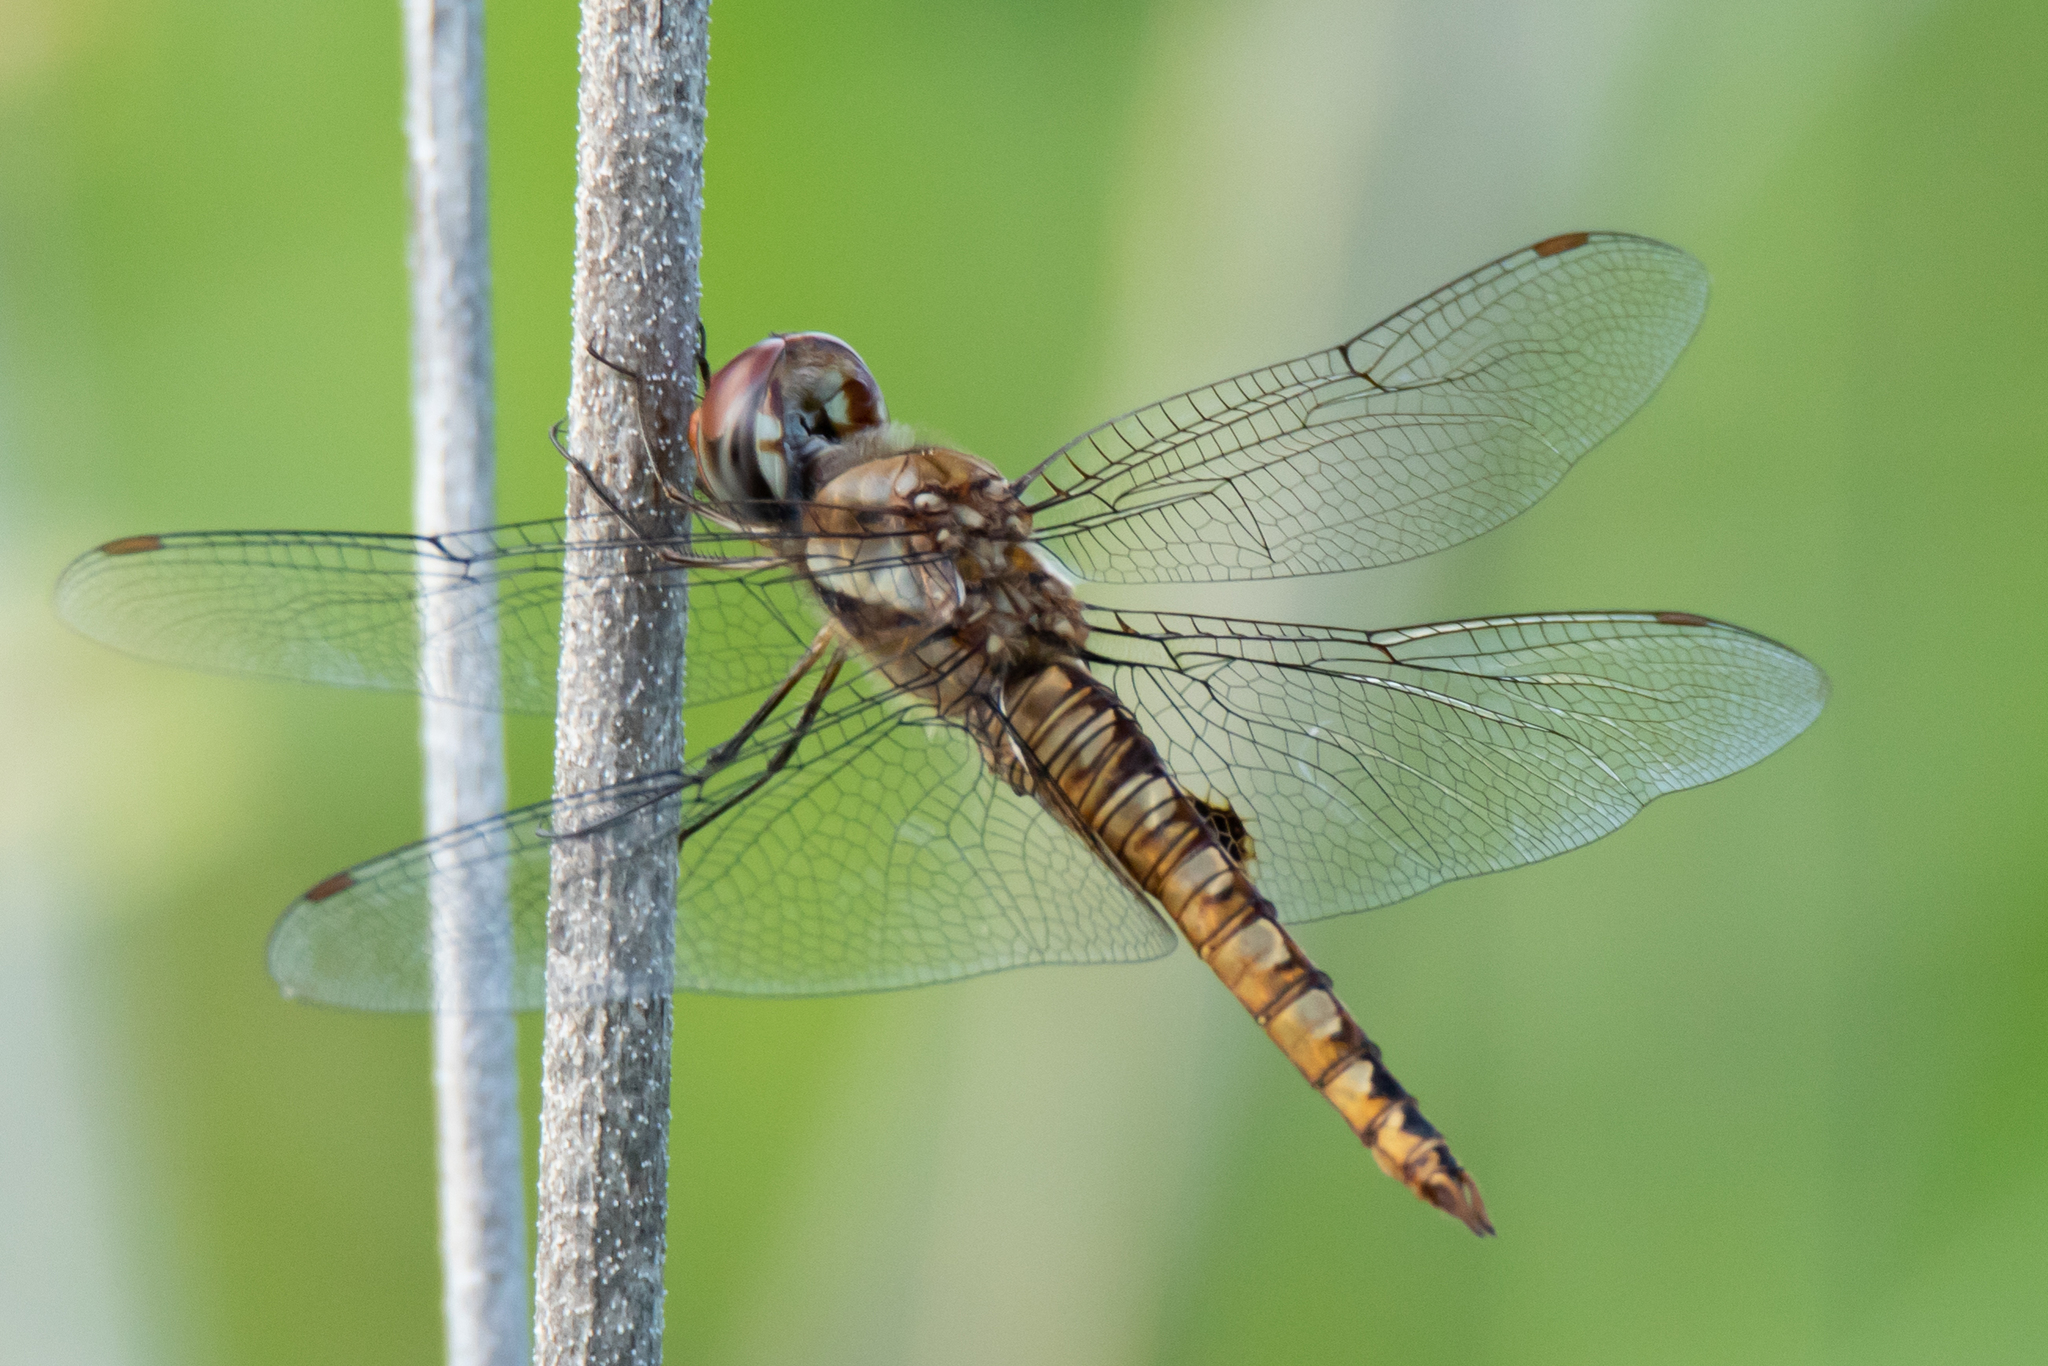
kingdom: Animalia
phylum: Arthropoda
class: Insecta
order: Odonata
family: Libellulidae
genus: Pantala
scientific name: Pantala hymenaea
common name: Spot-winged glider
